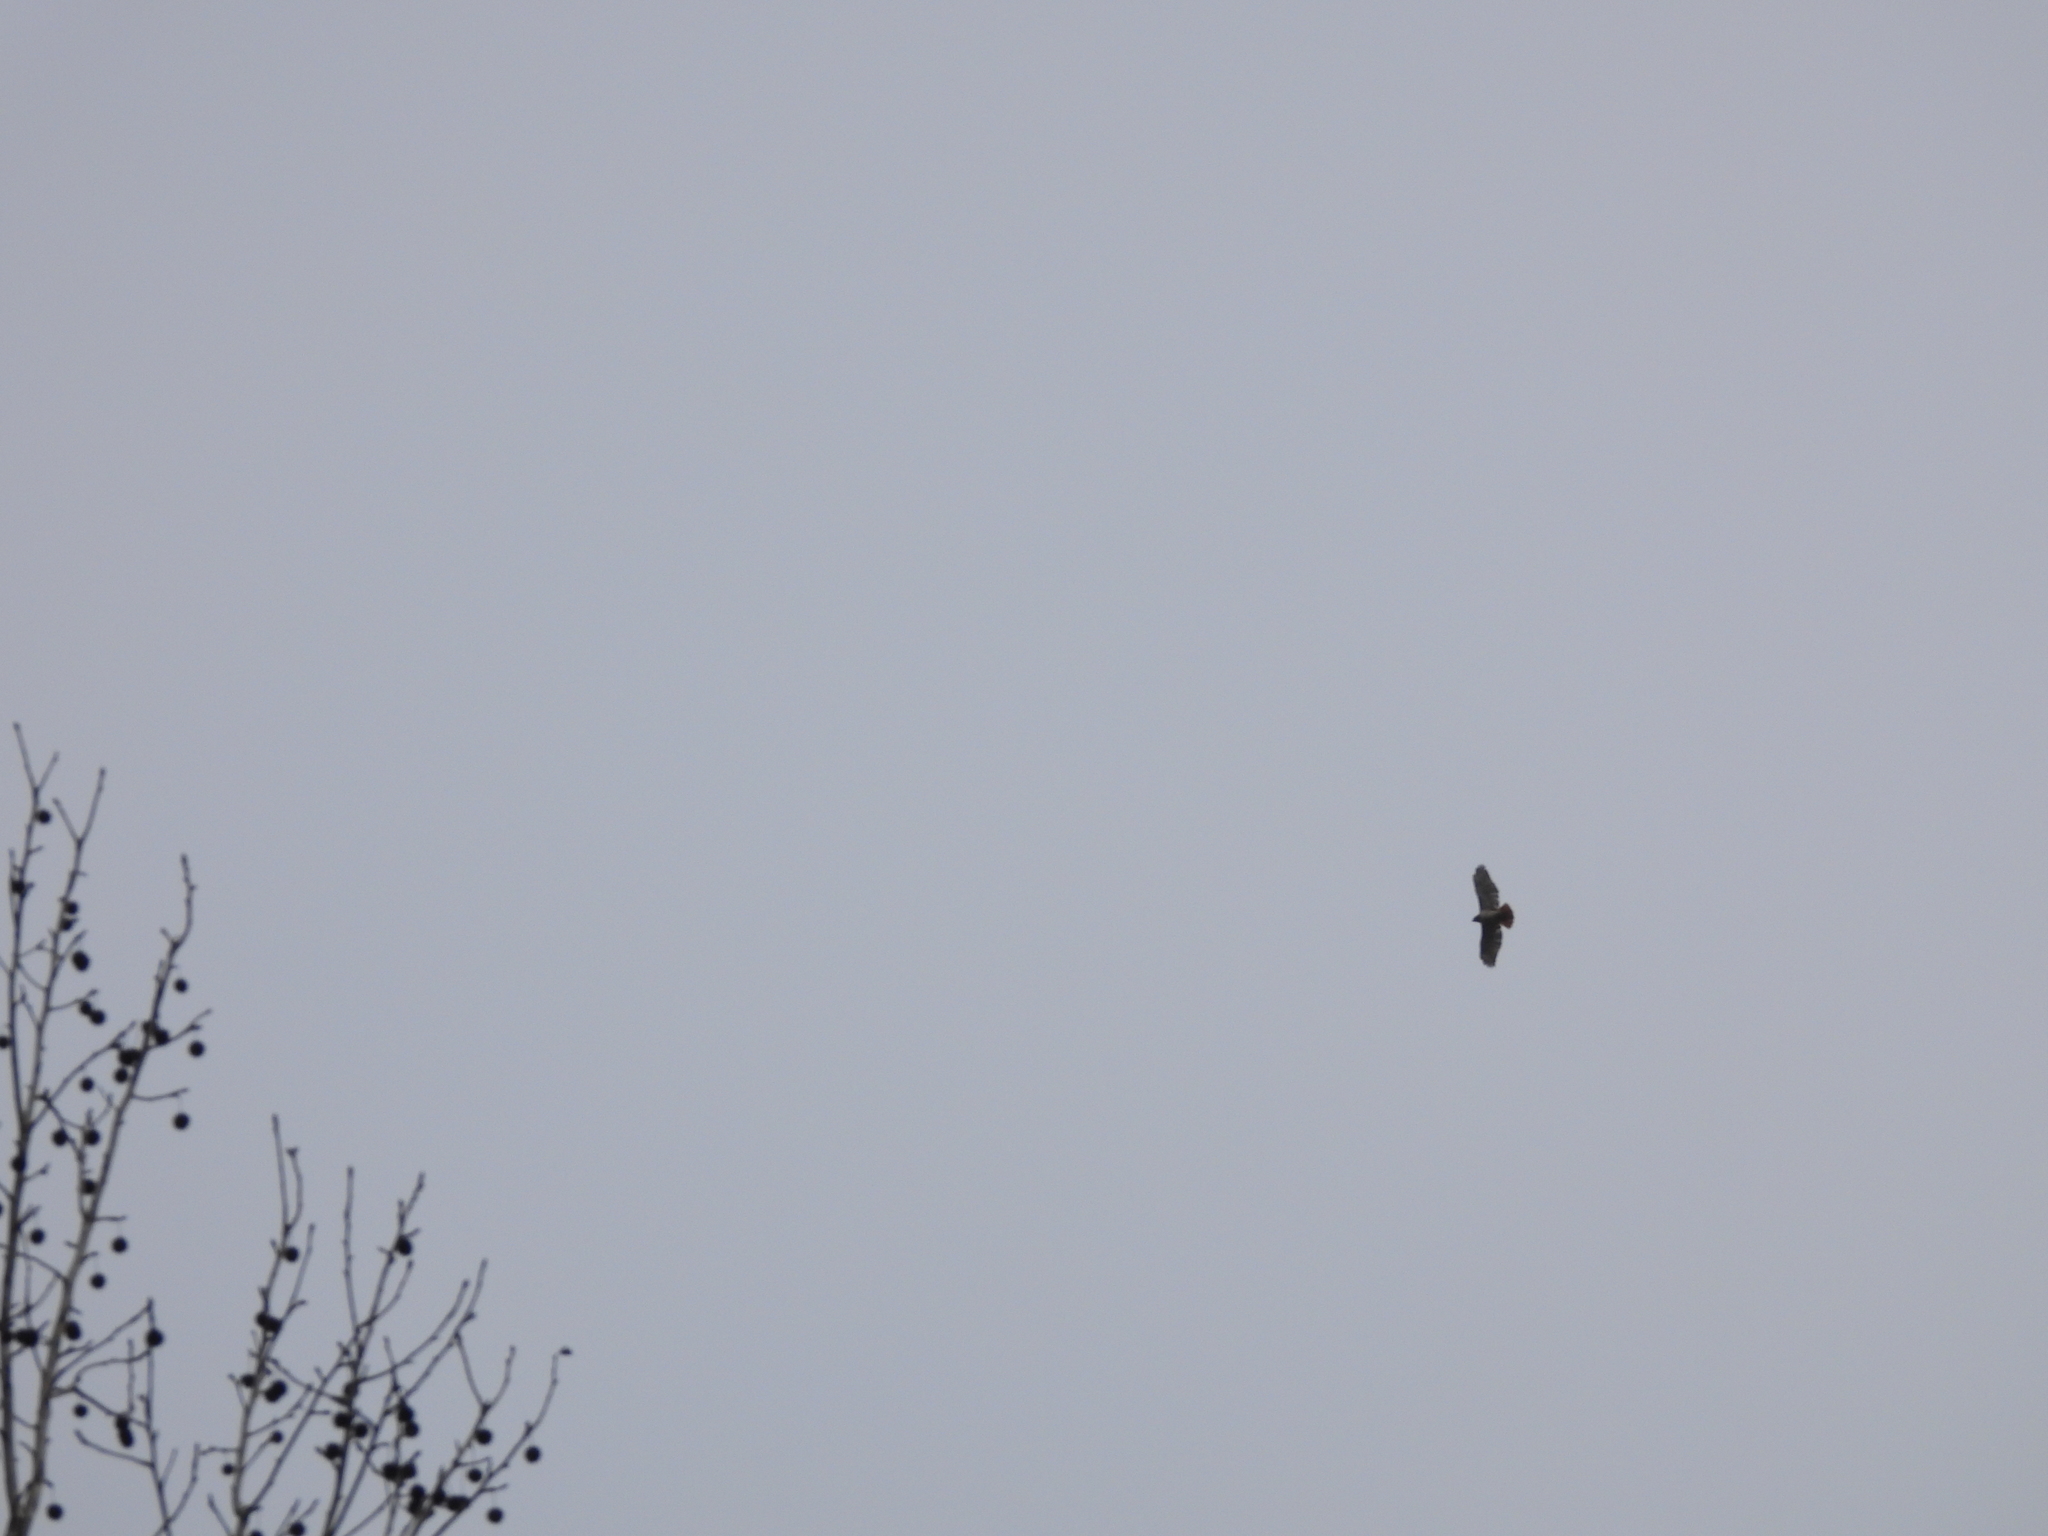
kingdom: Animalia
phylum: Chordata
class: Aves
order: Accipitriformes
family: Accipitridae
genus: Buteo
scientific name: Buteo jamaicensis
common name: Red-tailed hawk
